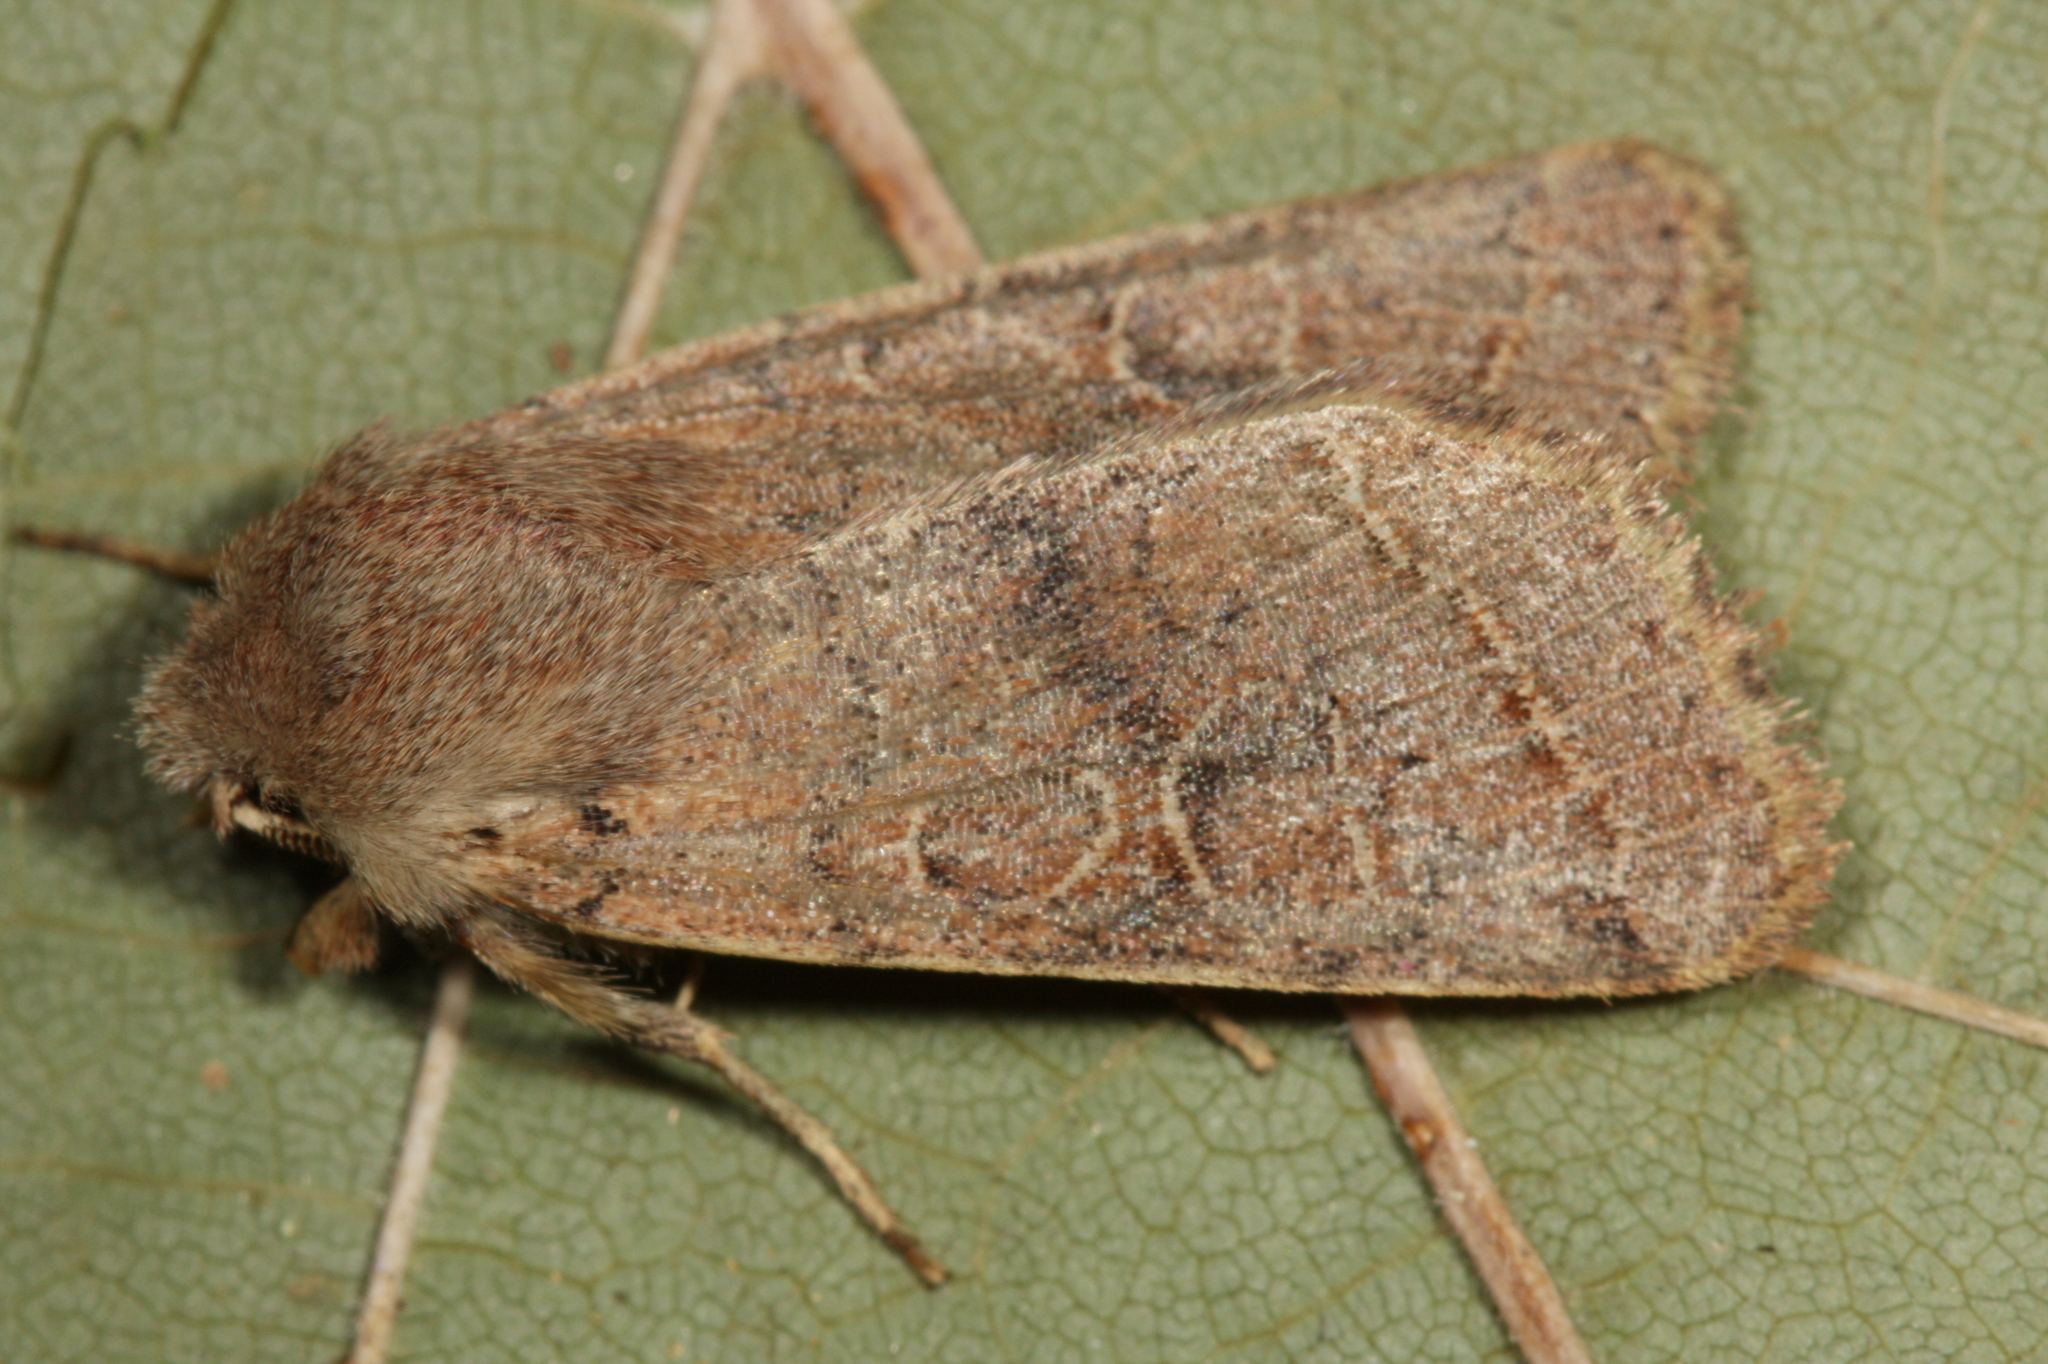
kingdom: Animalia
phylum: Arthropoda
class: Insecta
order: Lepidoptera
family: Noctuidae
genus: Orthosia
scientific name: Orthosia cerasi
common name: Common quaker
